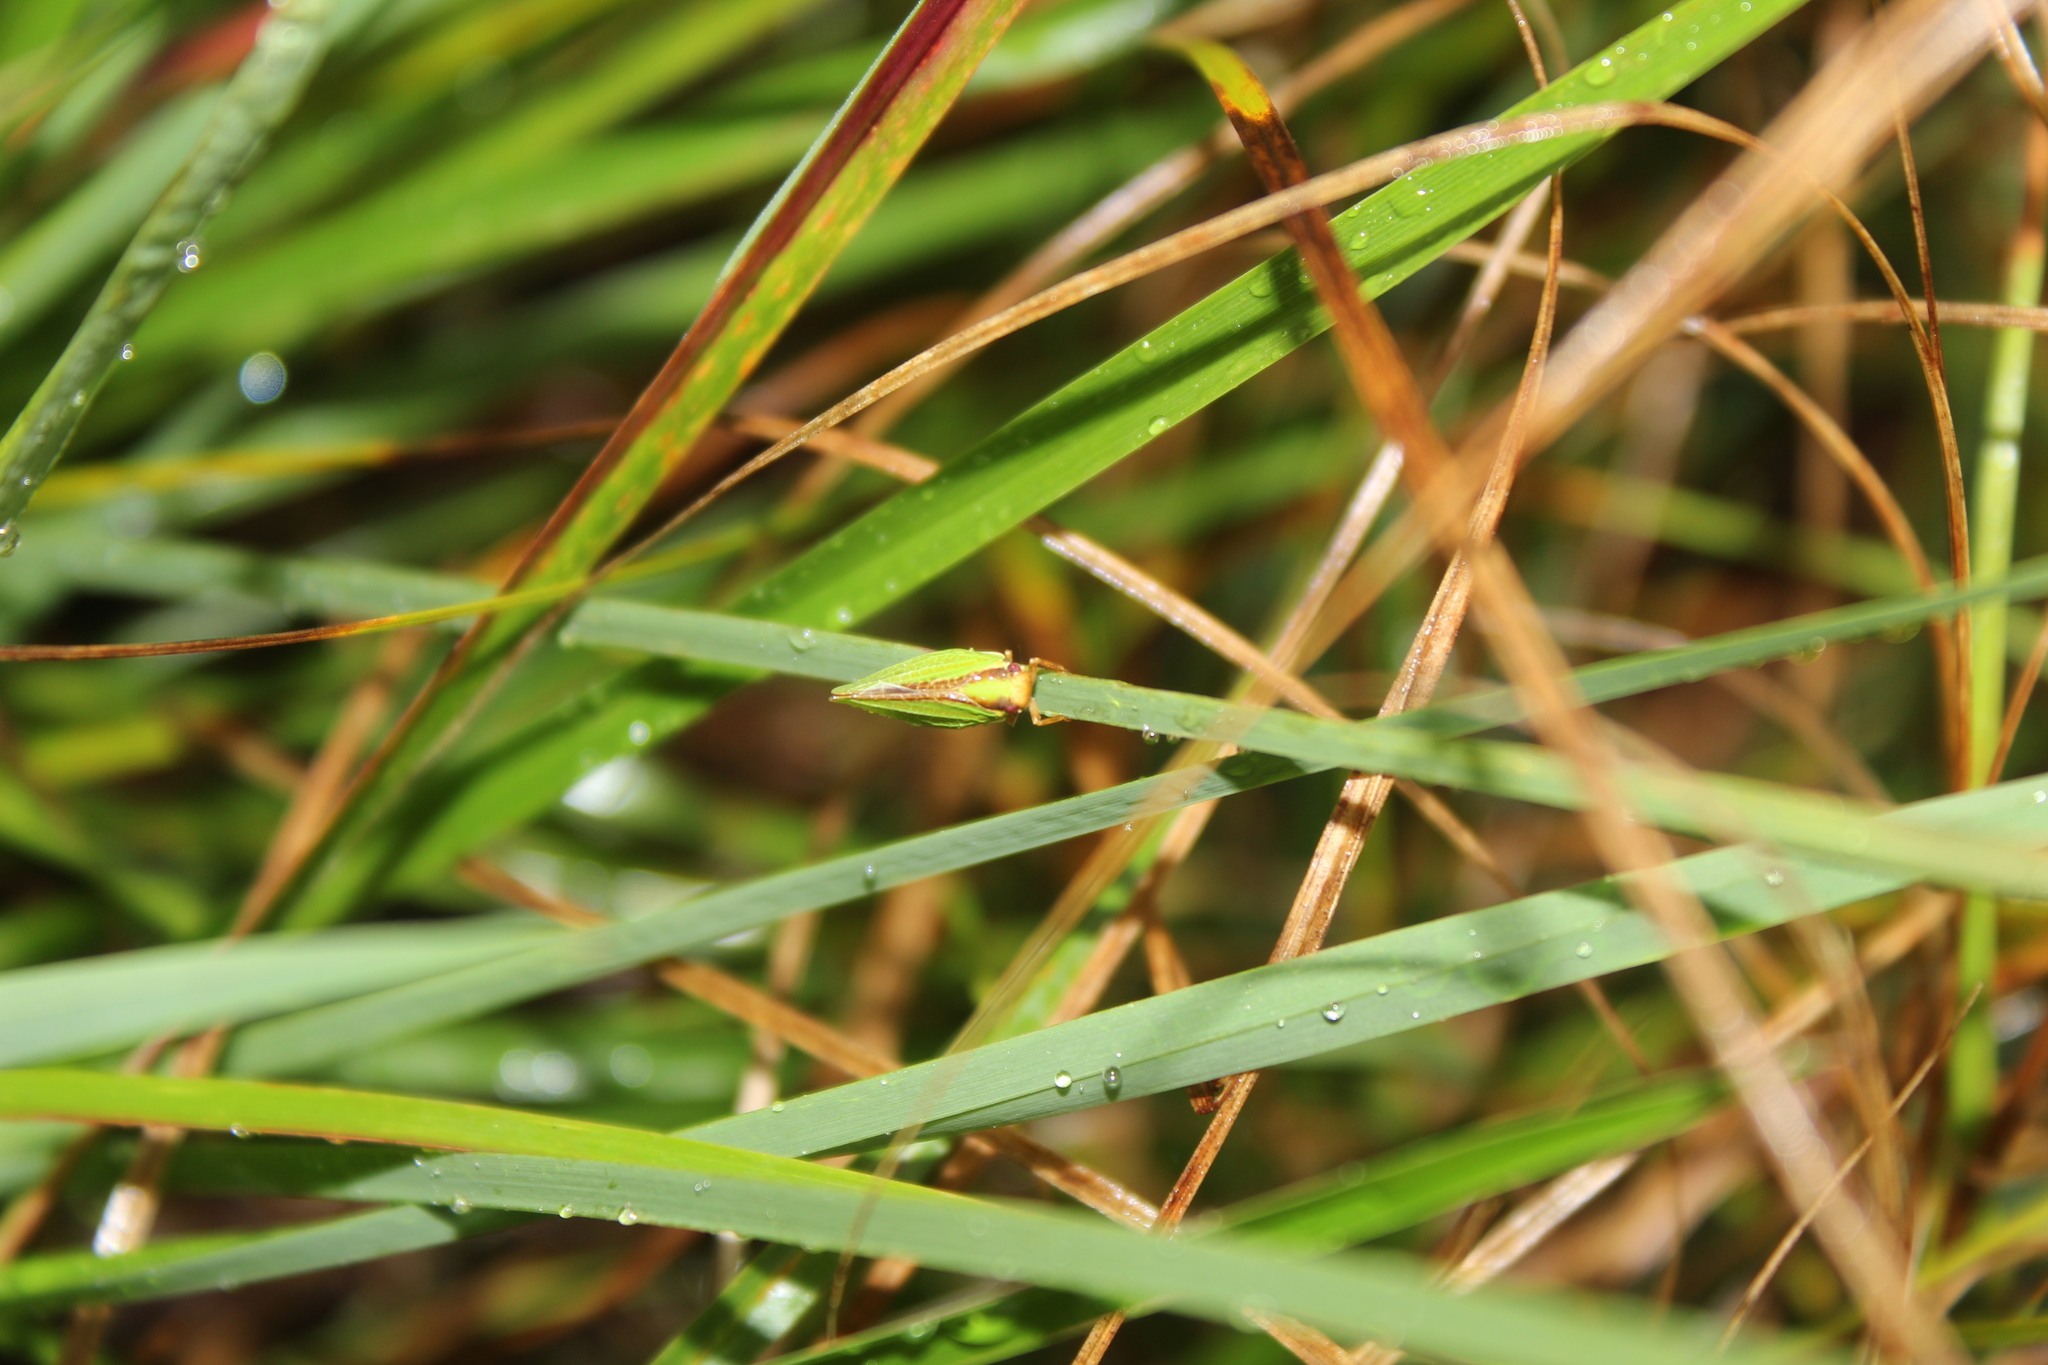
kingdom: Animalia
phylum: Arthropoda
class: Insecta
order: Hemiptera
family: Acanaloniidae
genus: Acanalonia
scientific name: Acanalonia bivittata
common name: Two-striped planthopper
